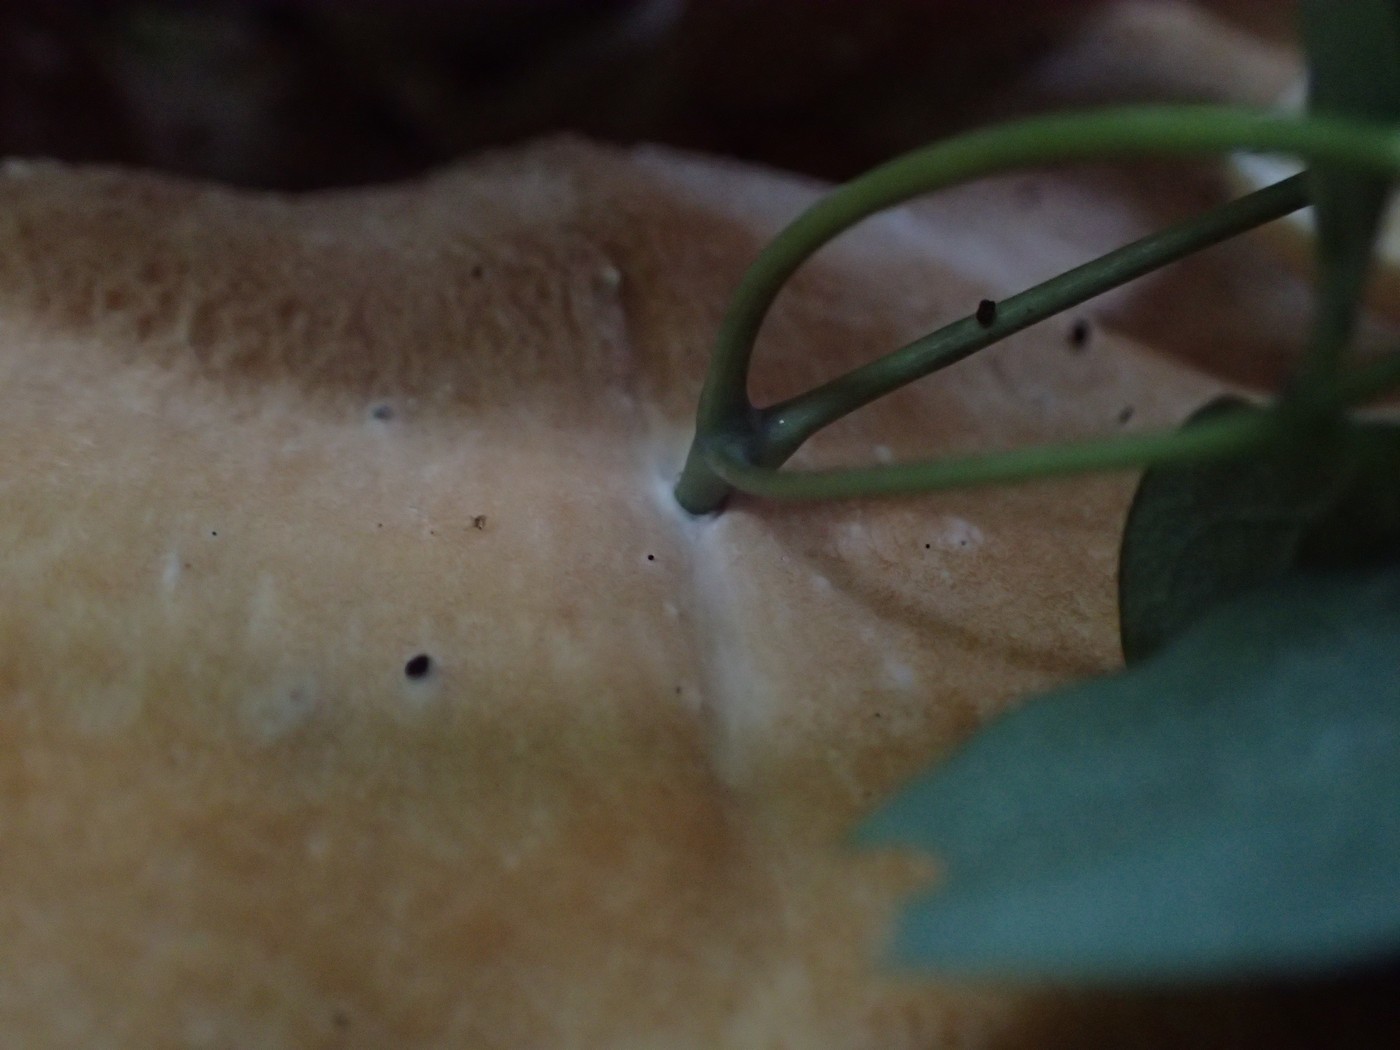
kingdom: Fungi
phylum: Basidiomycota
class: Agaricomycetes
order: Russulales
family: Bondarzewiaceae
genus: Bondarzewia
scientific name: Bondarzewia berkeleyi
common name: Berkeley's polypore
